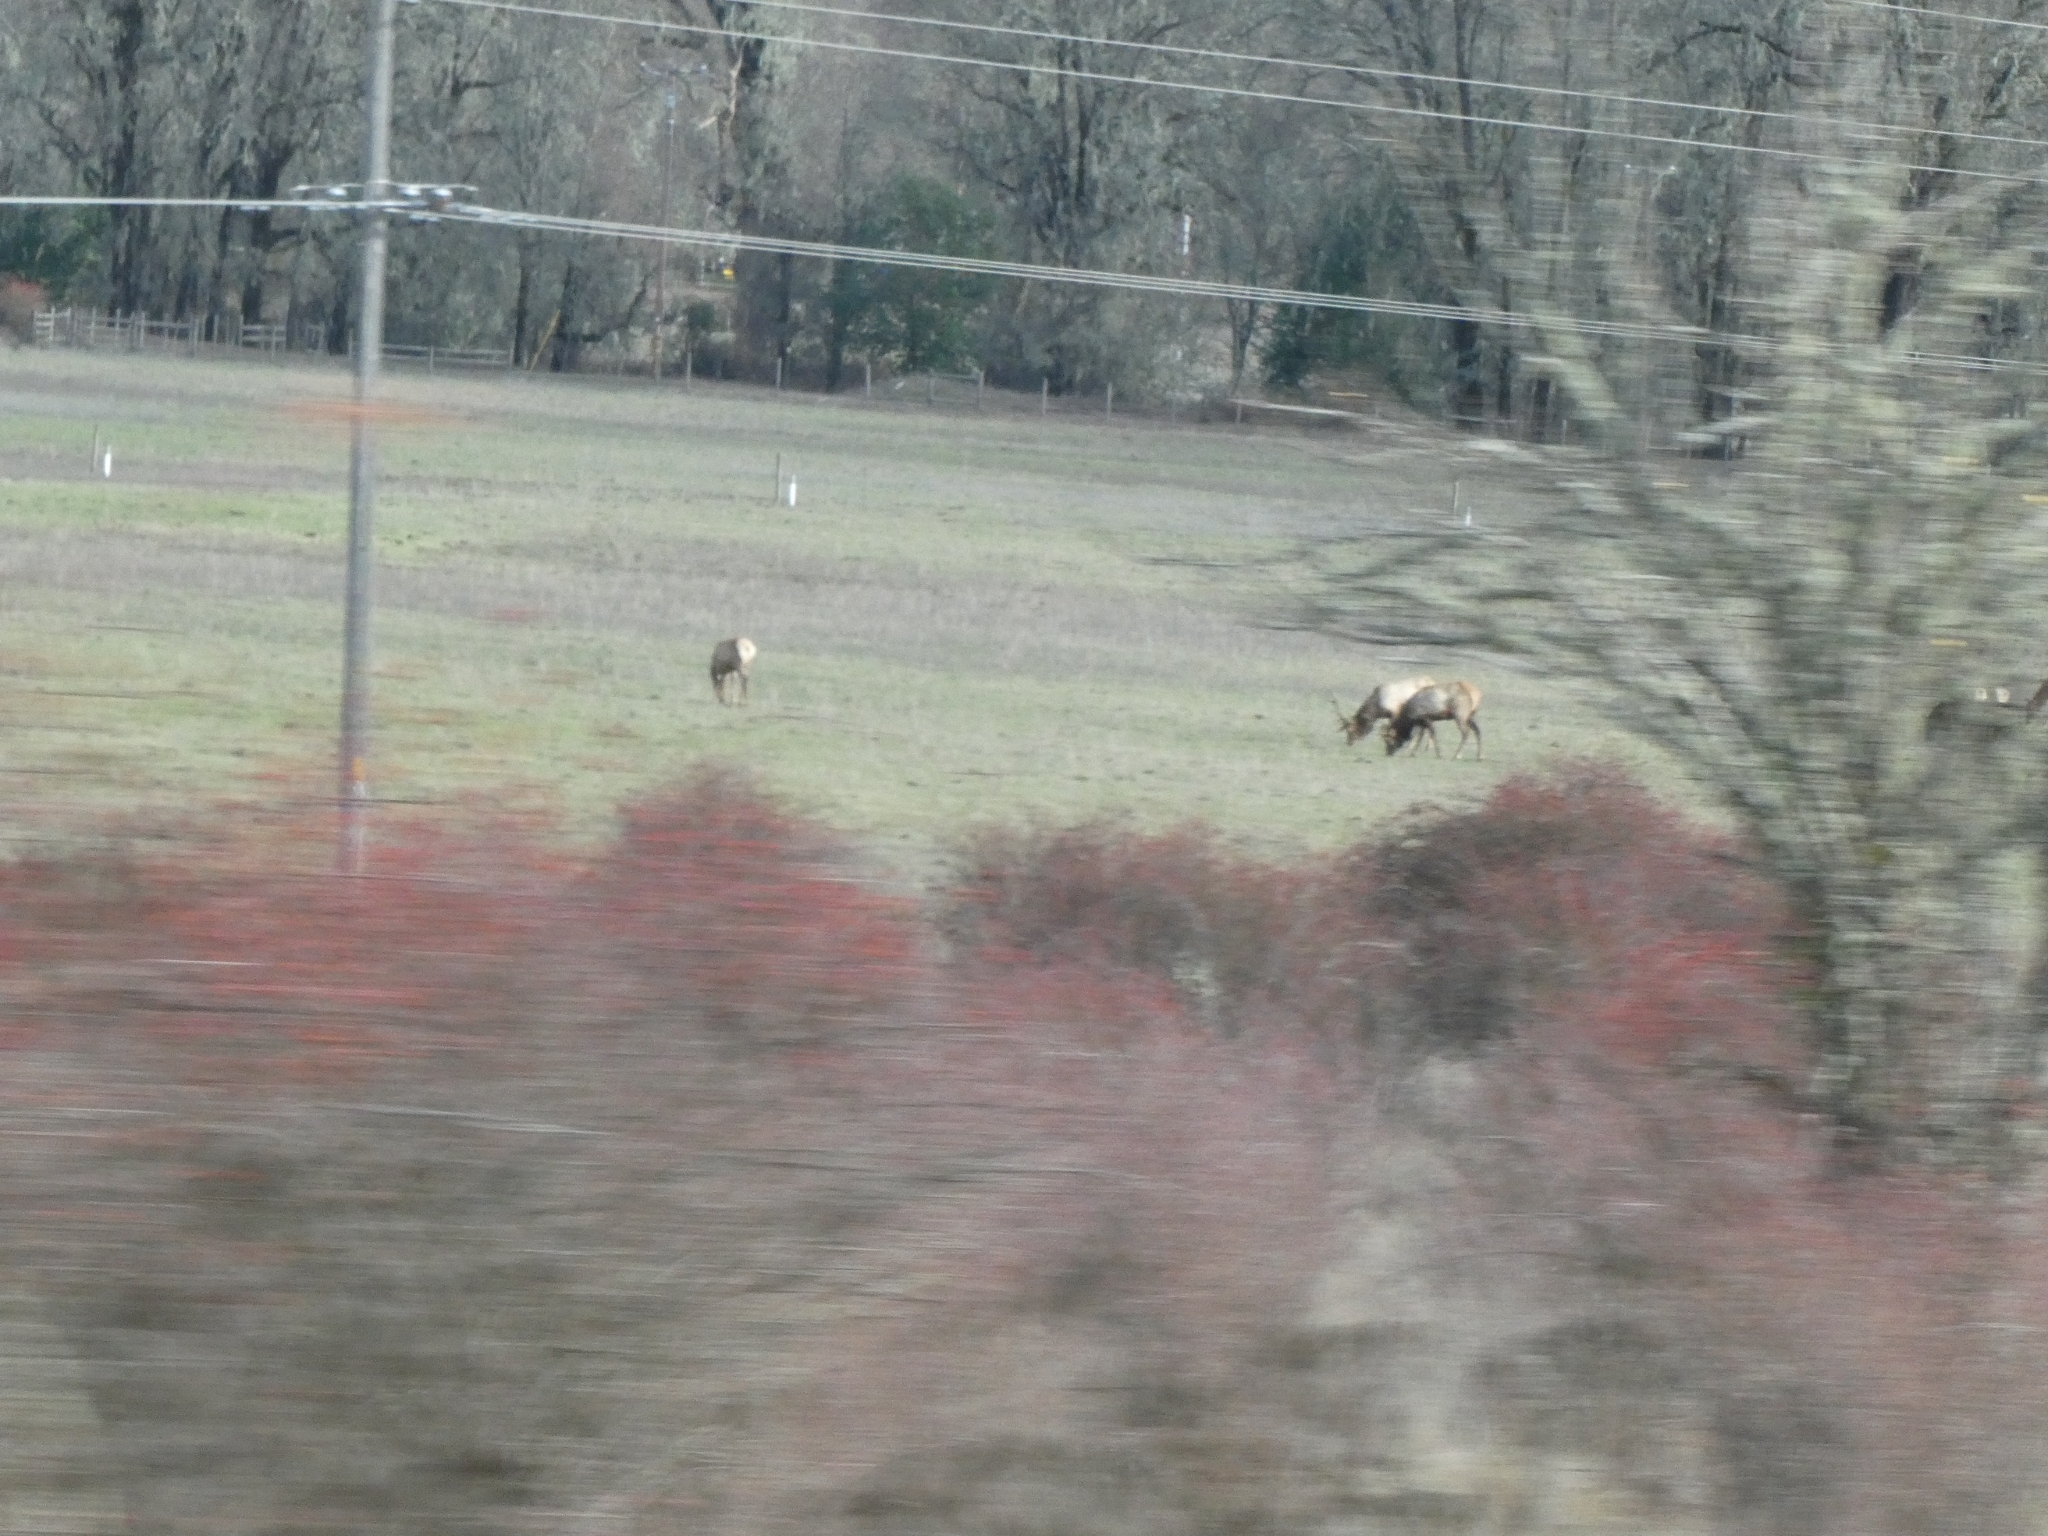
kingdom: Animalia
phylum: Chordata
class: Mammalia
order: Artiodactyla
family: Cervidae
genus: Cervus
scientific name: Cervus elaphus
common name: Red deer
